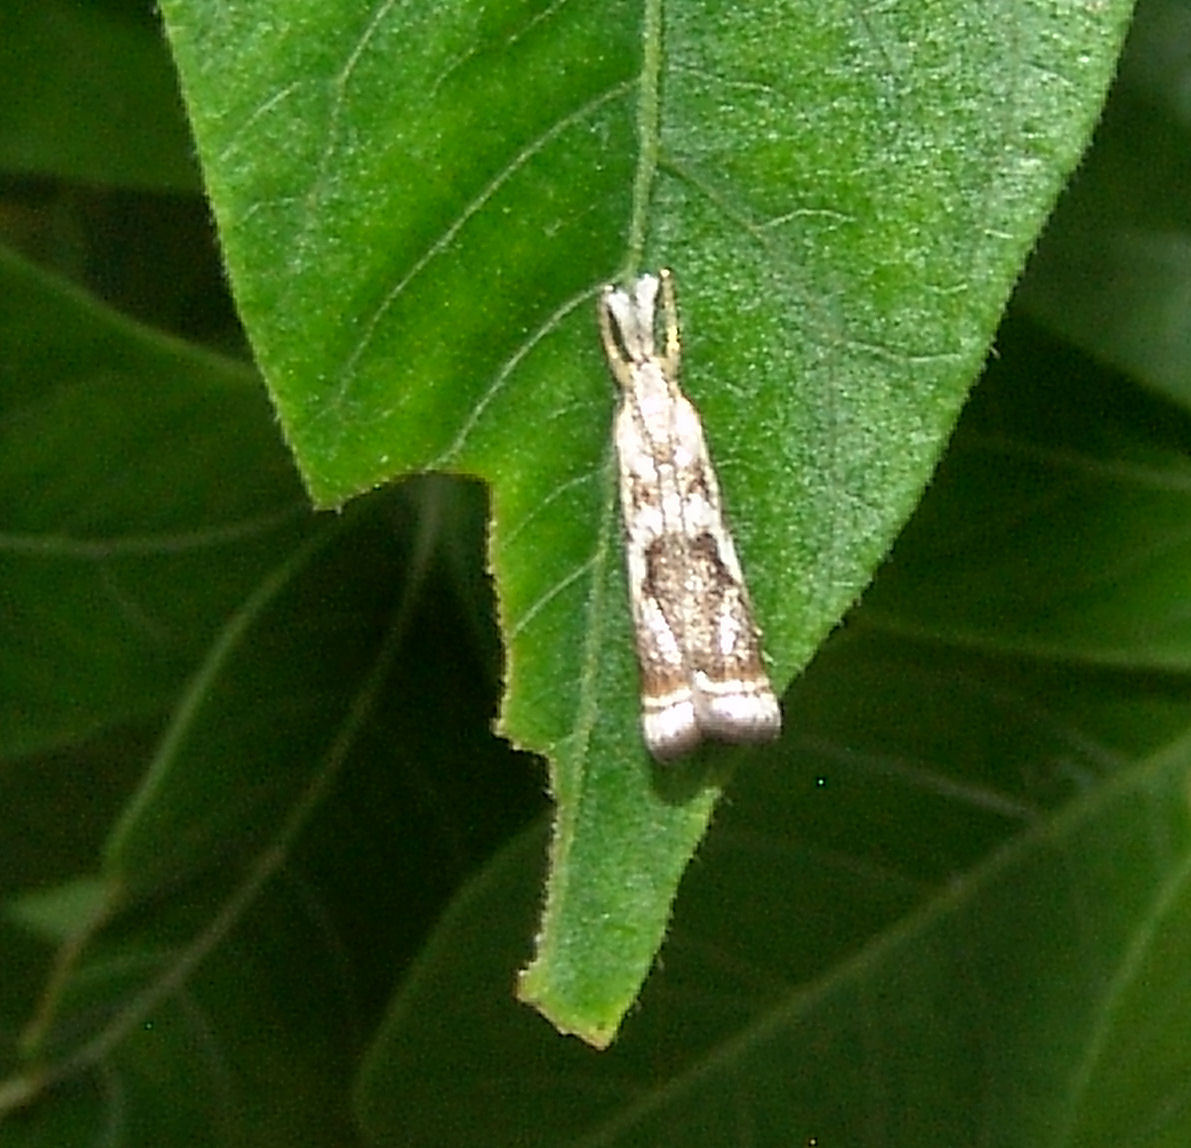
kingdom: Animalia
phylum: Arthropoda
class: Insecta
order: Lepidoptera
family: Crambidae
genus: Microcrambus
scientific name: Microcrambus elegans
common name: Elegant grass-veneer
